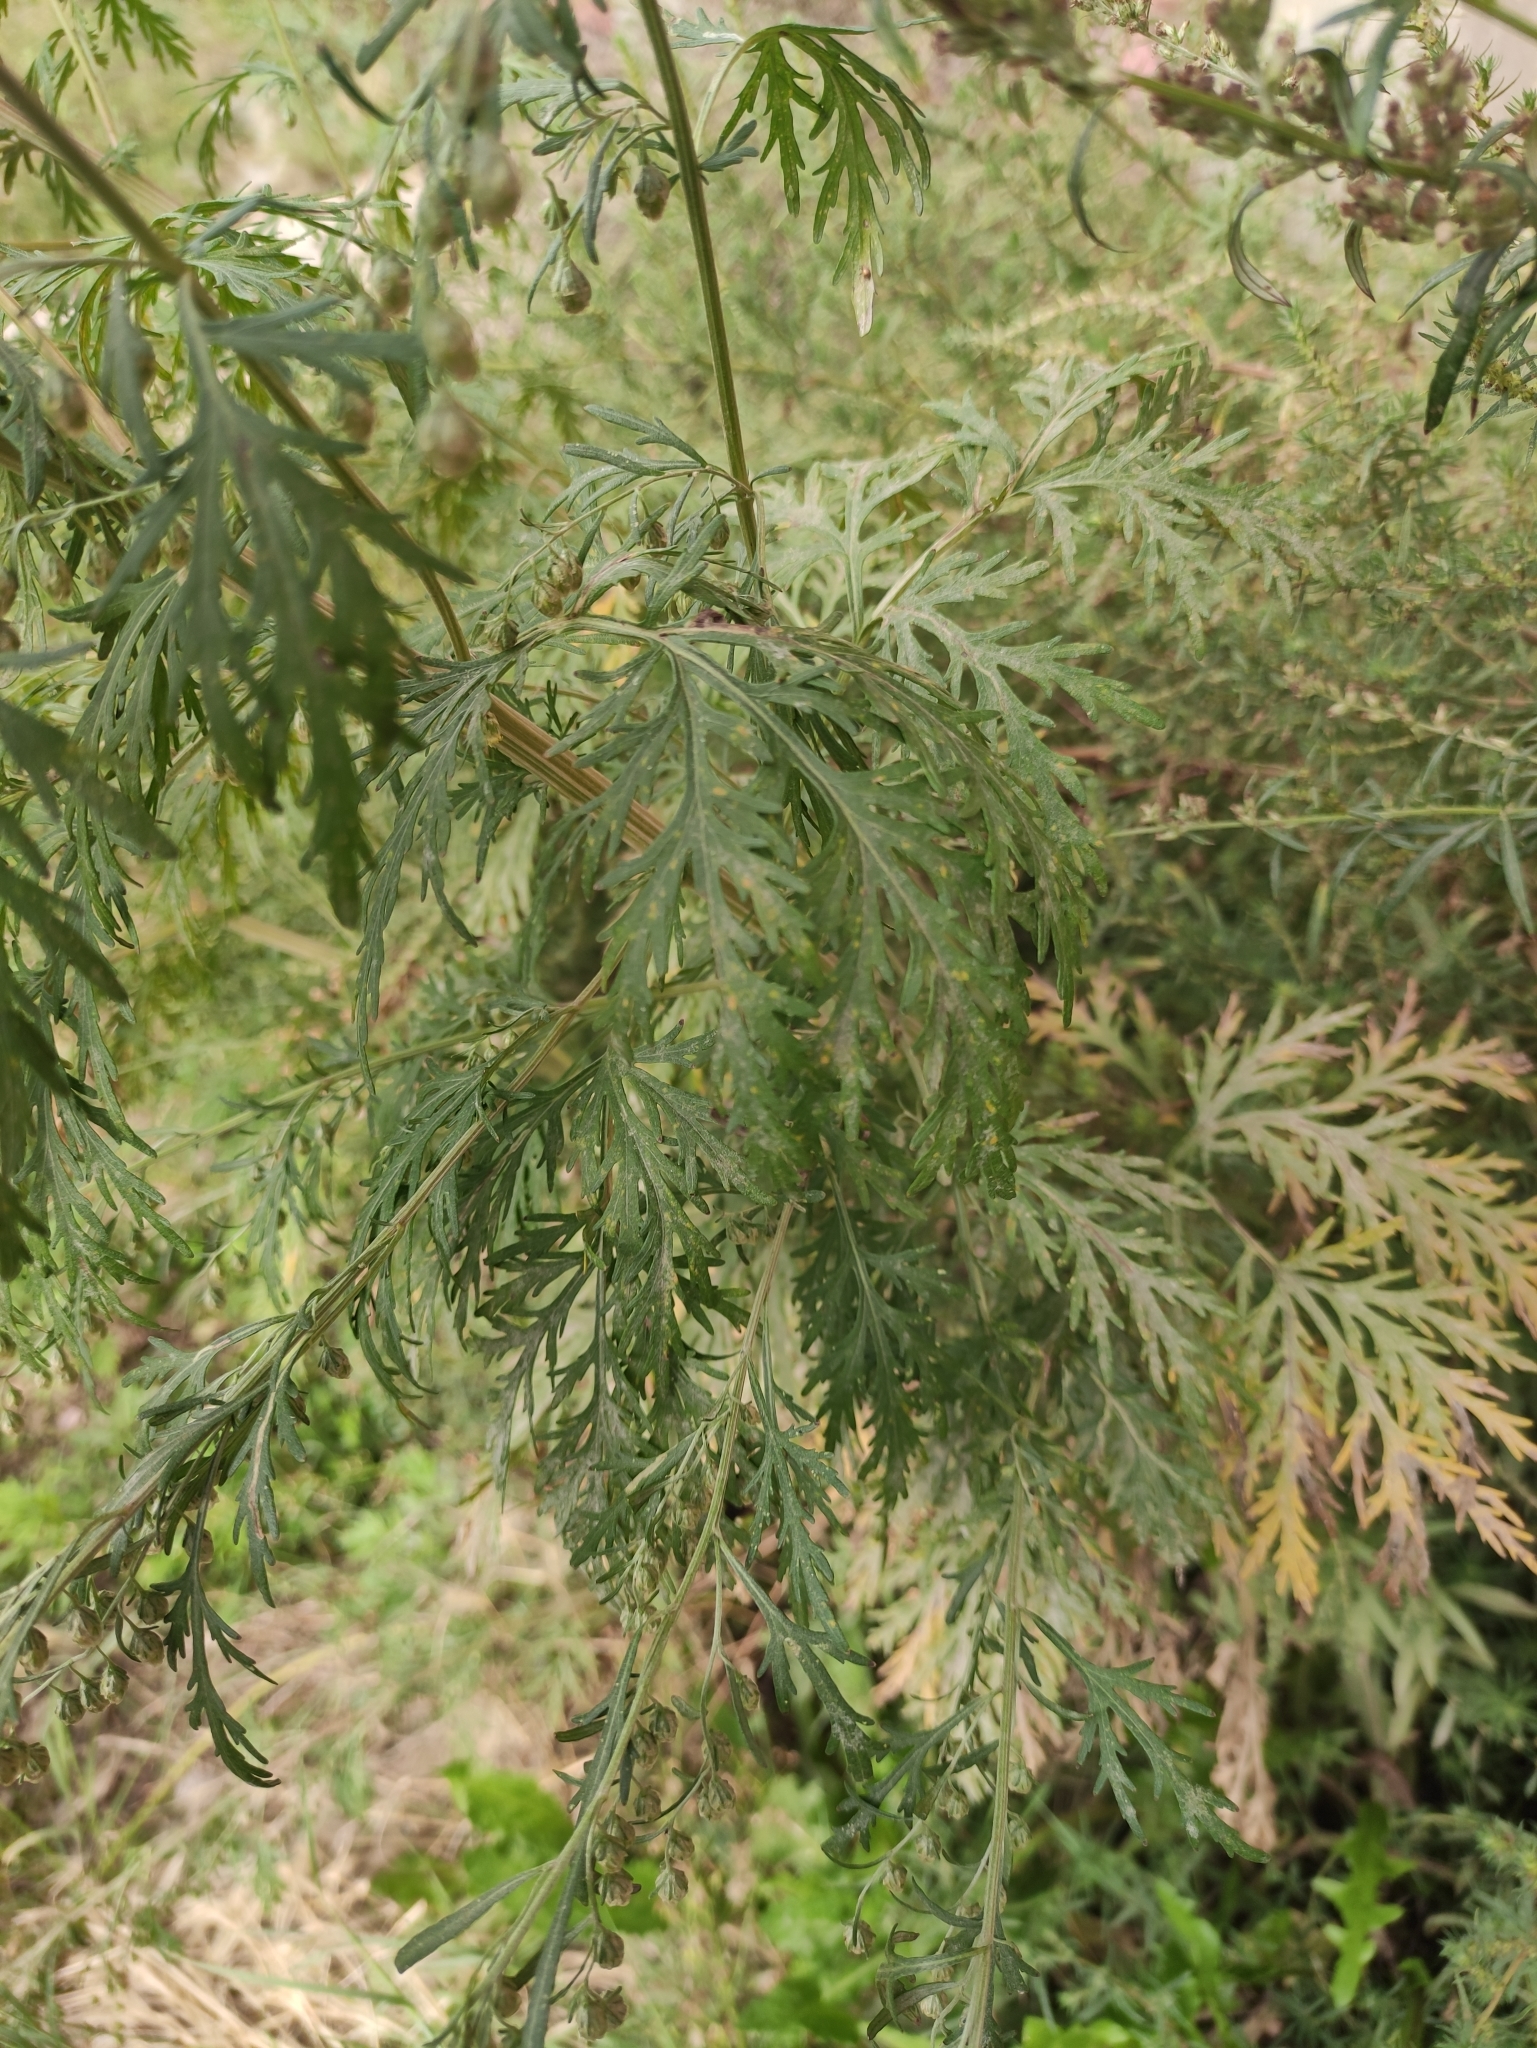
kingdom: Plantae
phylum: Tracheophyta
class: Magnoliopsida
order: Asterales
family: Asteraceae
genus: Artemisia
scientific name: Artemisia sieversiana
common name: Sieversian wormwood
